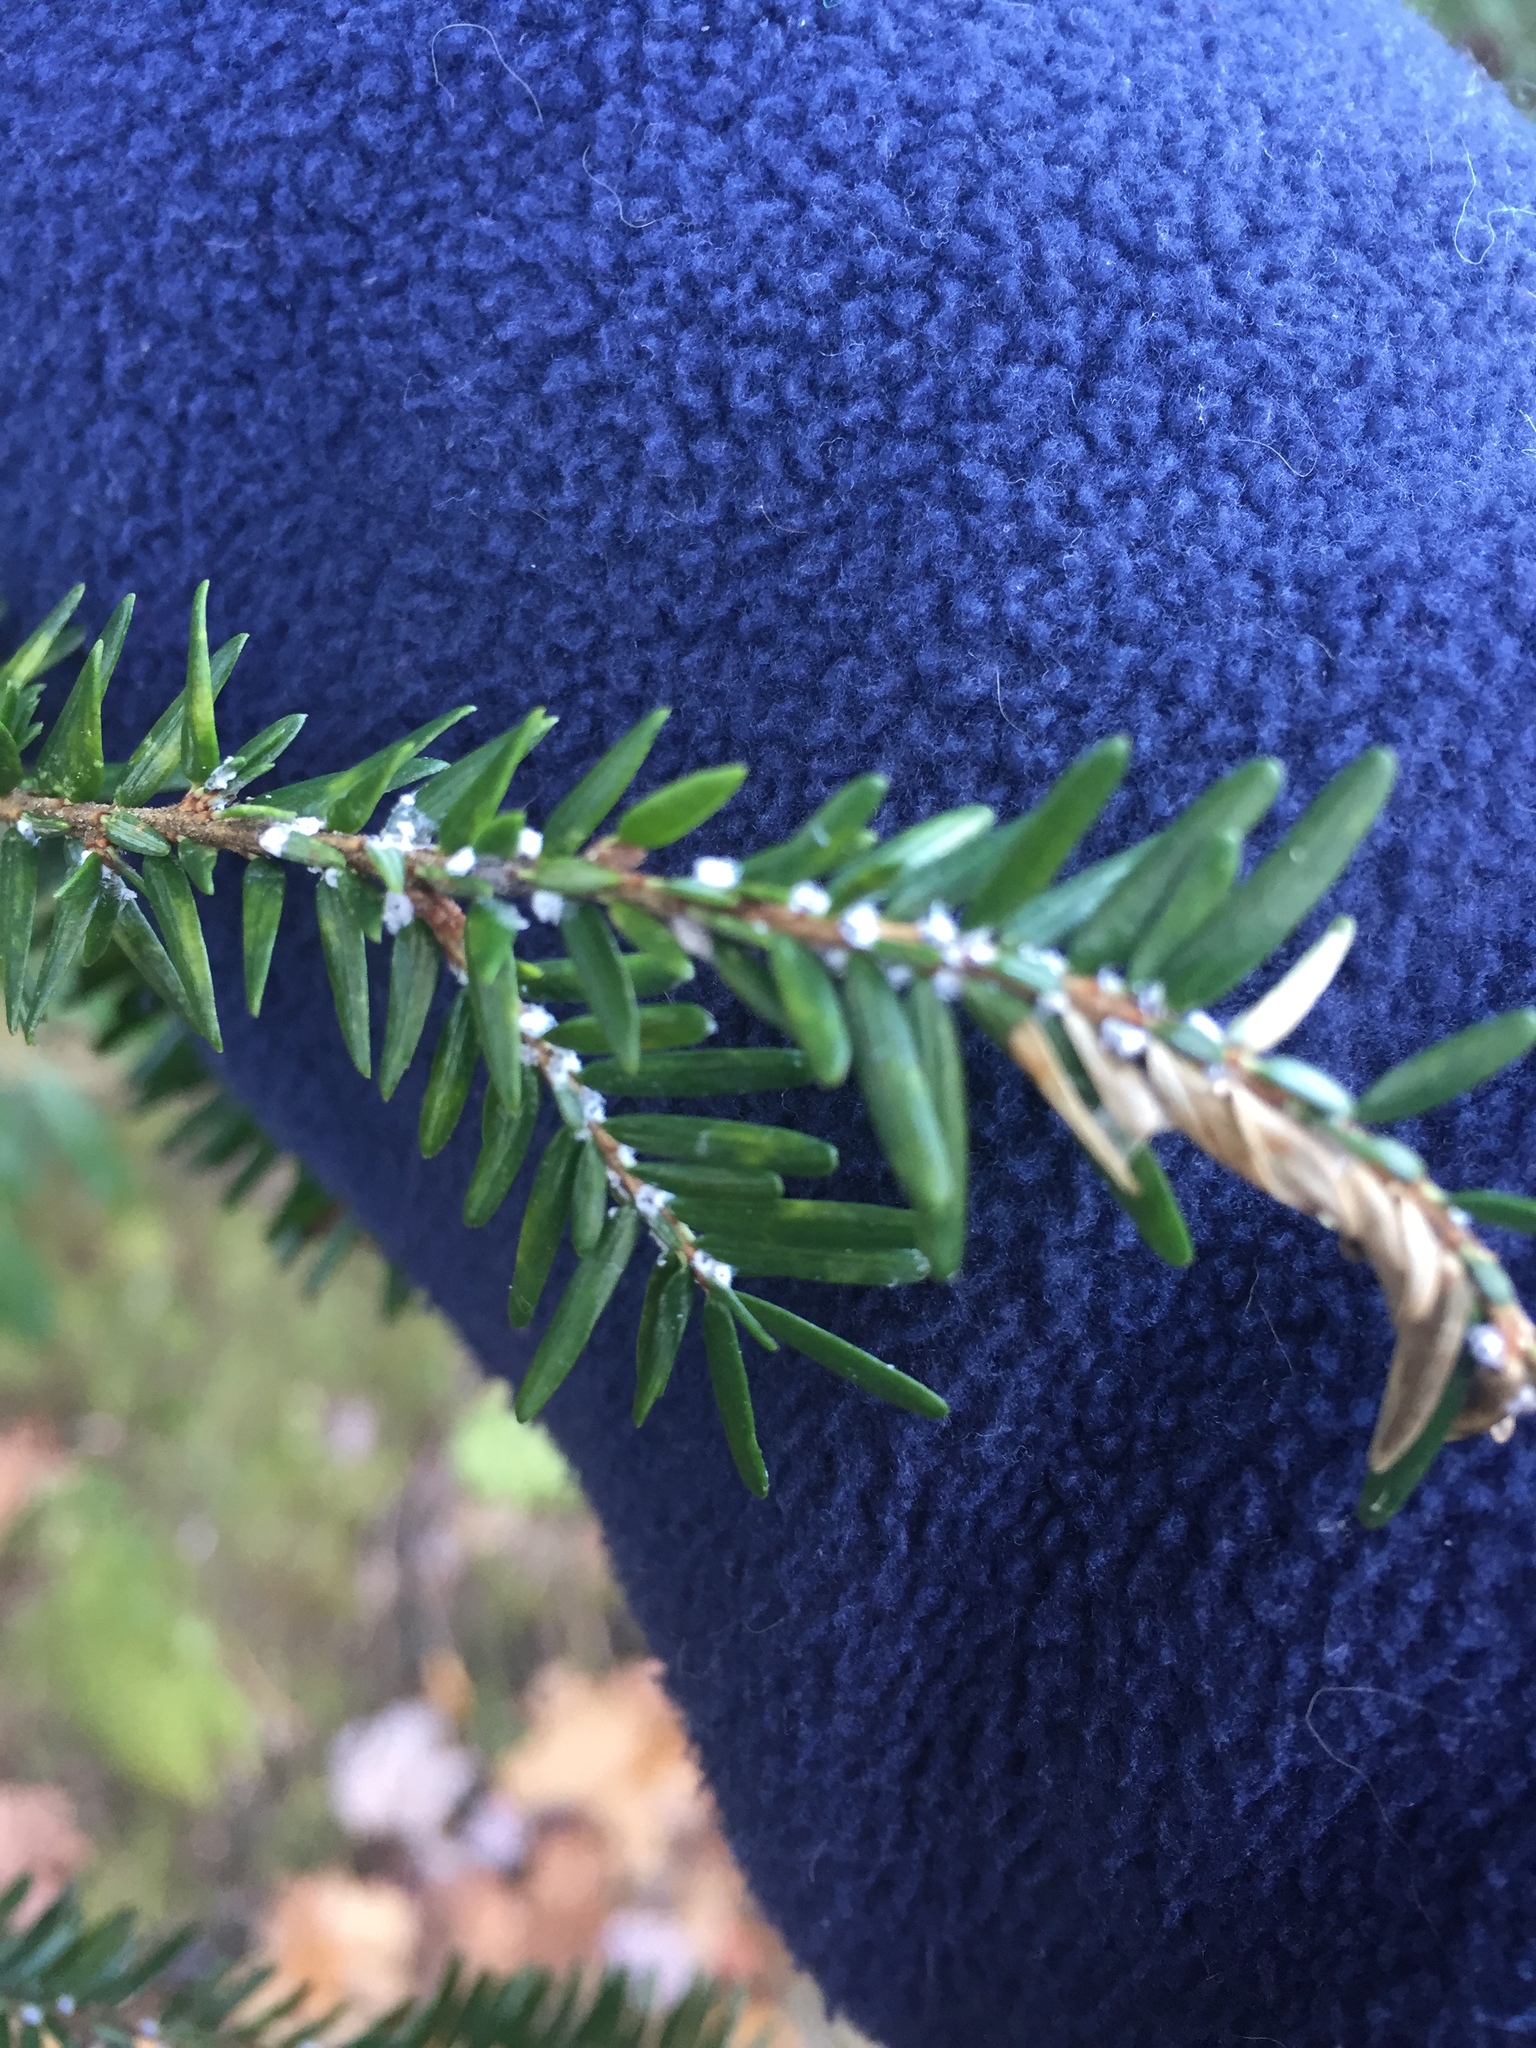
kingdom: Animalia
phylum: Arthropoda
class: Insecta
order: Hemiptera
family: Adelgidae
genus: Adelges
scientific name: Adelges tsugae
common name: Hemlock woolly adelgid
